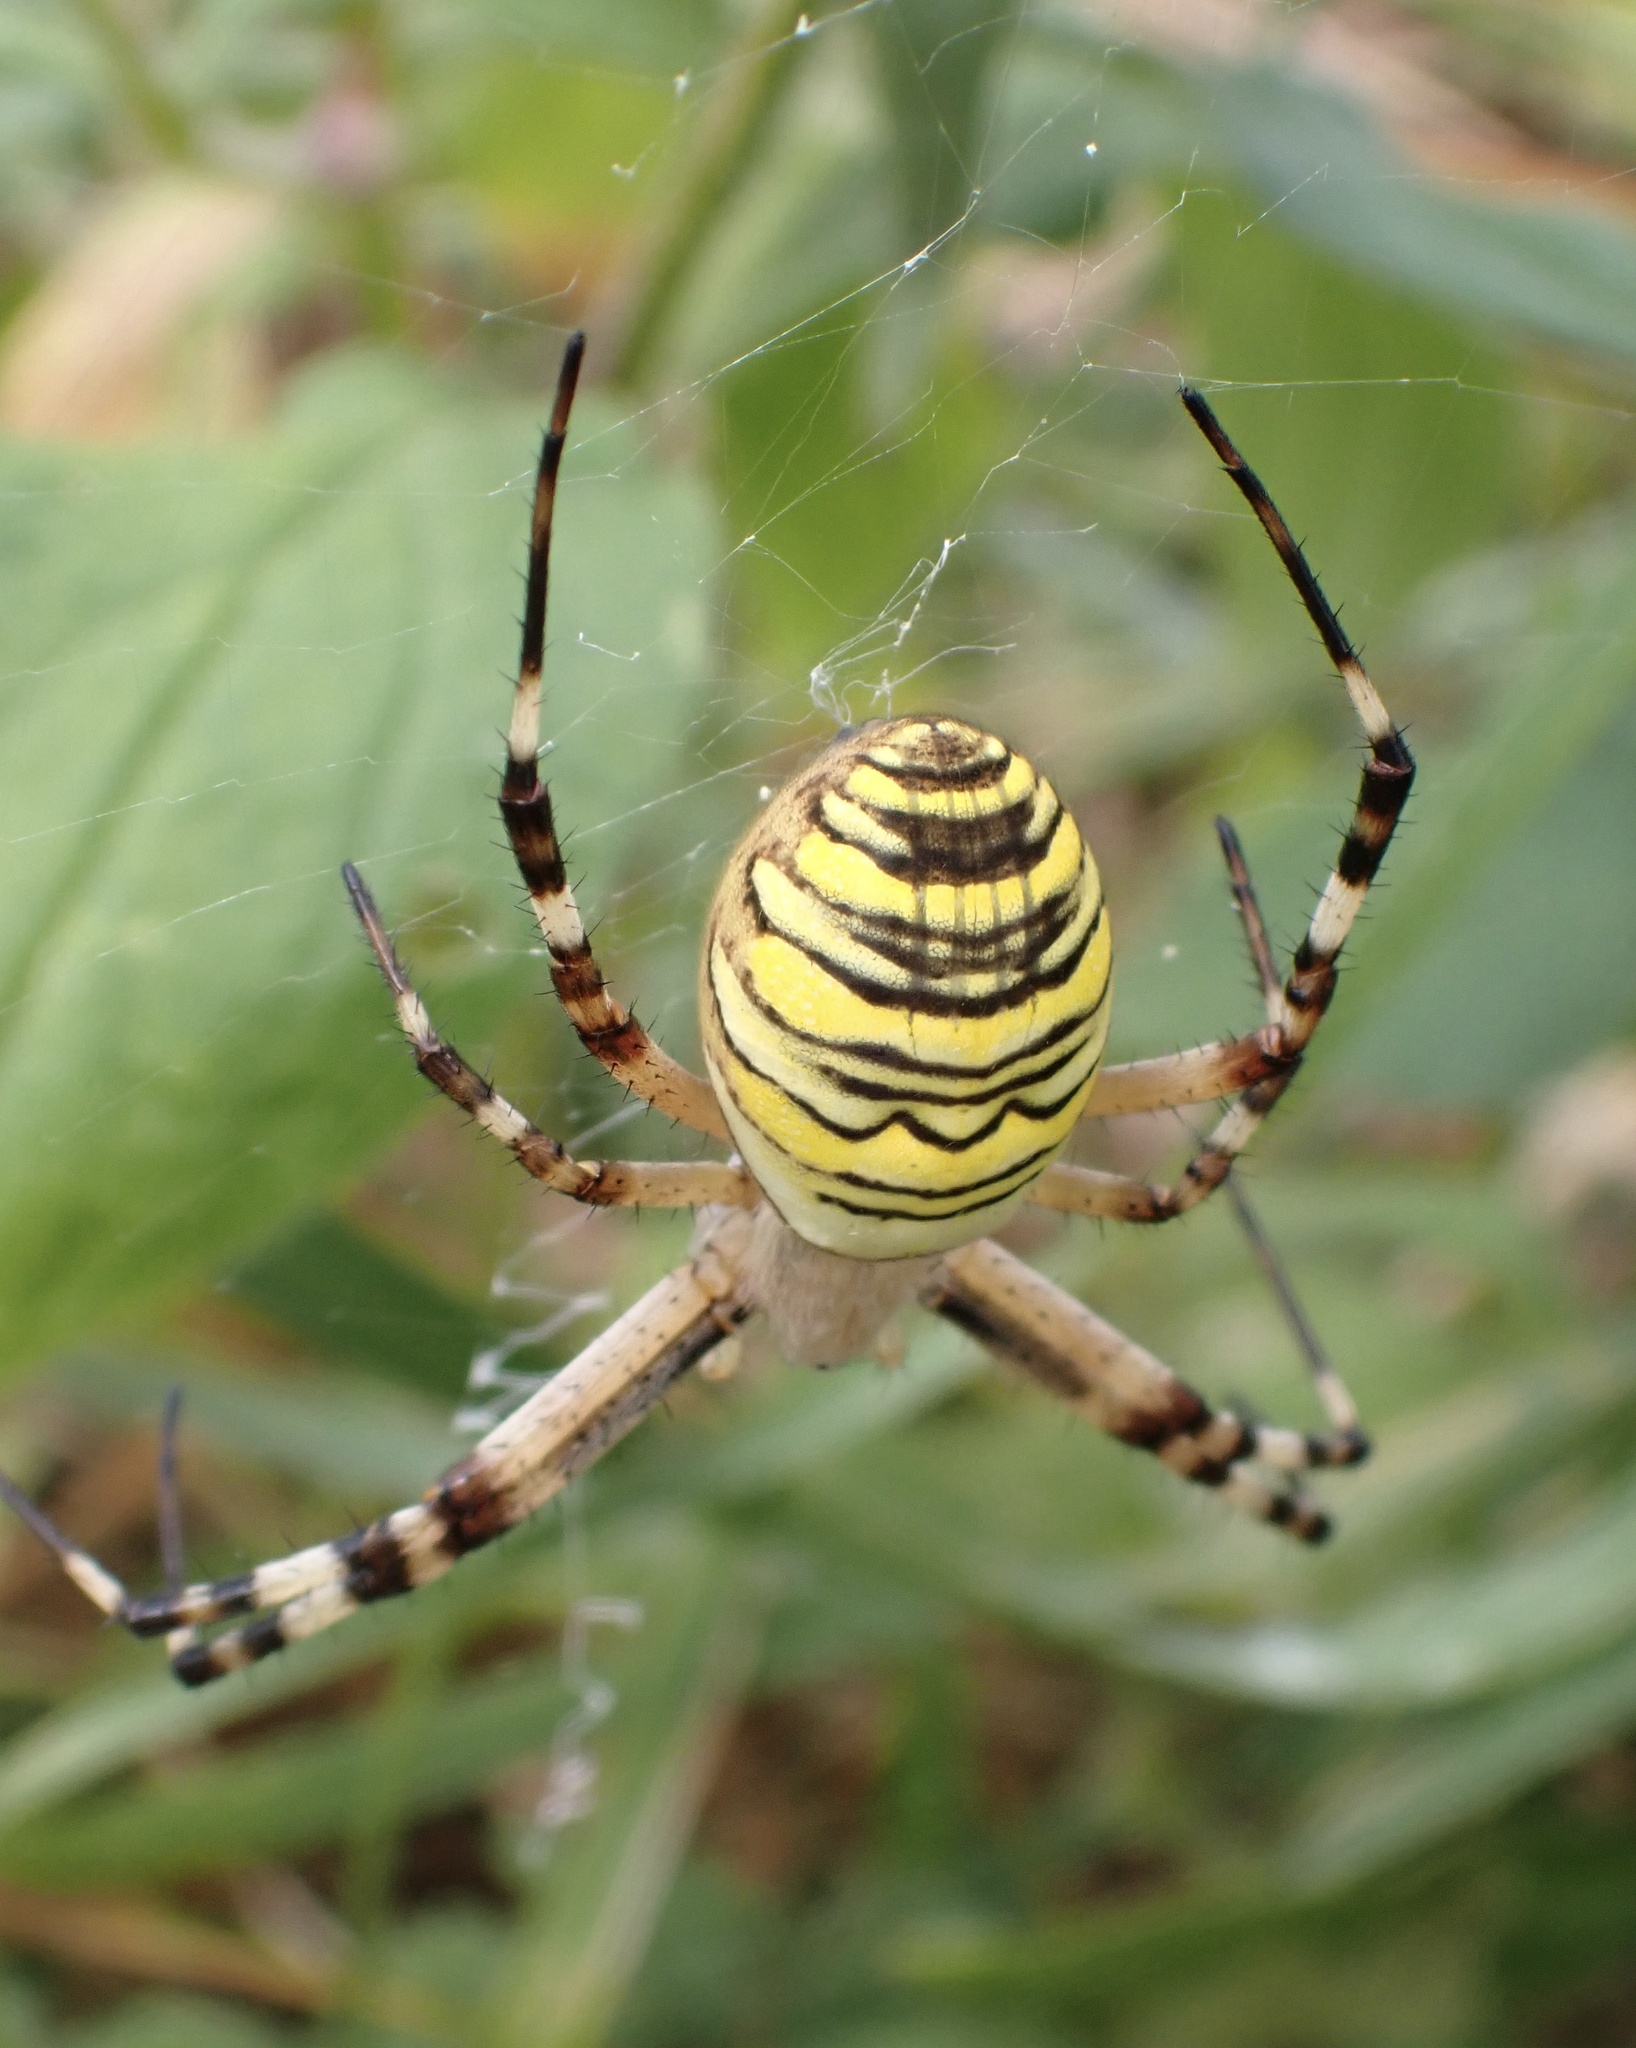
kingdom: Animalia
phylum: Arthropoda
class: Arachnida
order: Araneae
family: Araneidae
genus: Argiope
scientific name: Argiope bruennichi
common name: Wasp spider
